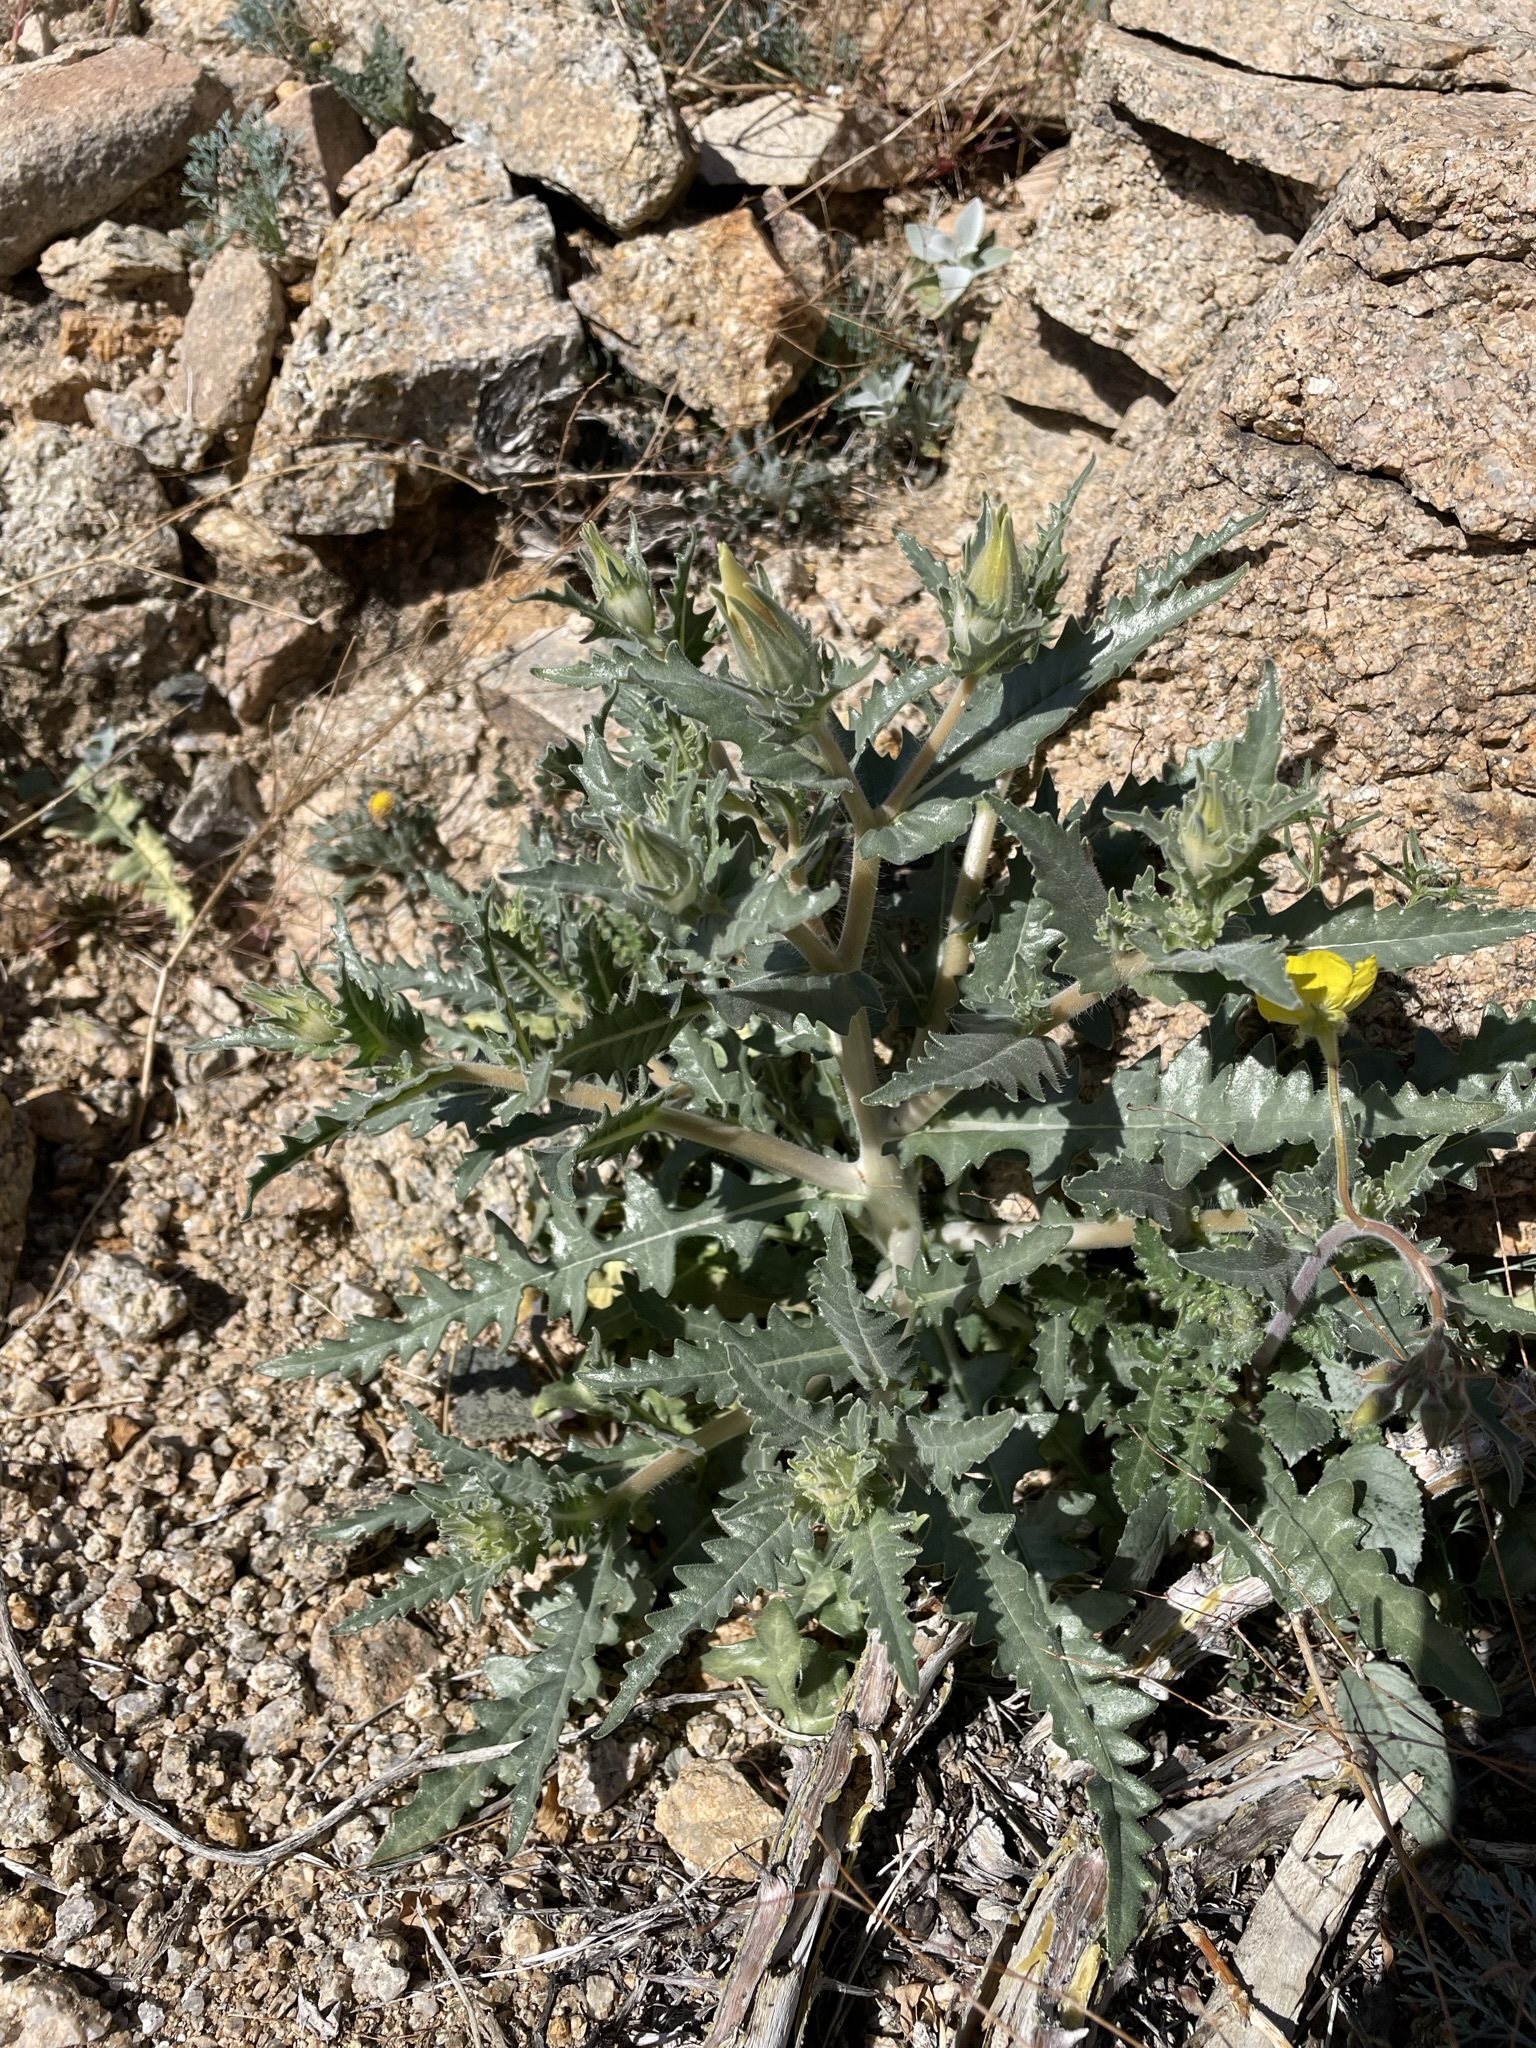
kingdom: Plantae
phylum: Tracheophyta
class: Magnoliopsida
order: Cornales
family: Loasaceae
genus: Mentzelia
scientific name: Mentzelia involucrata
